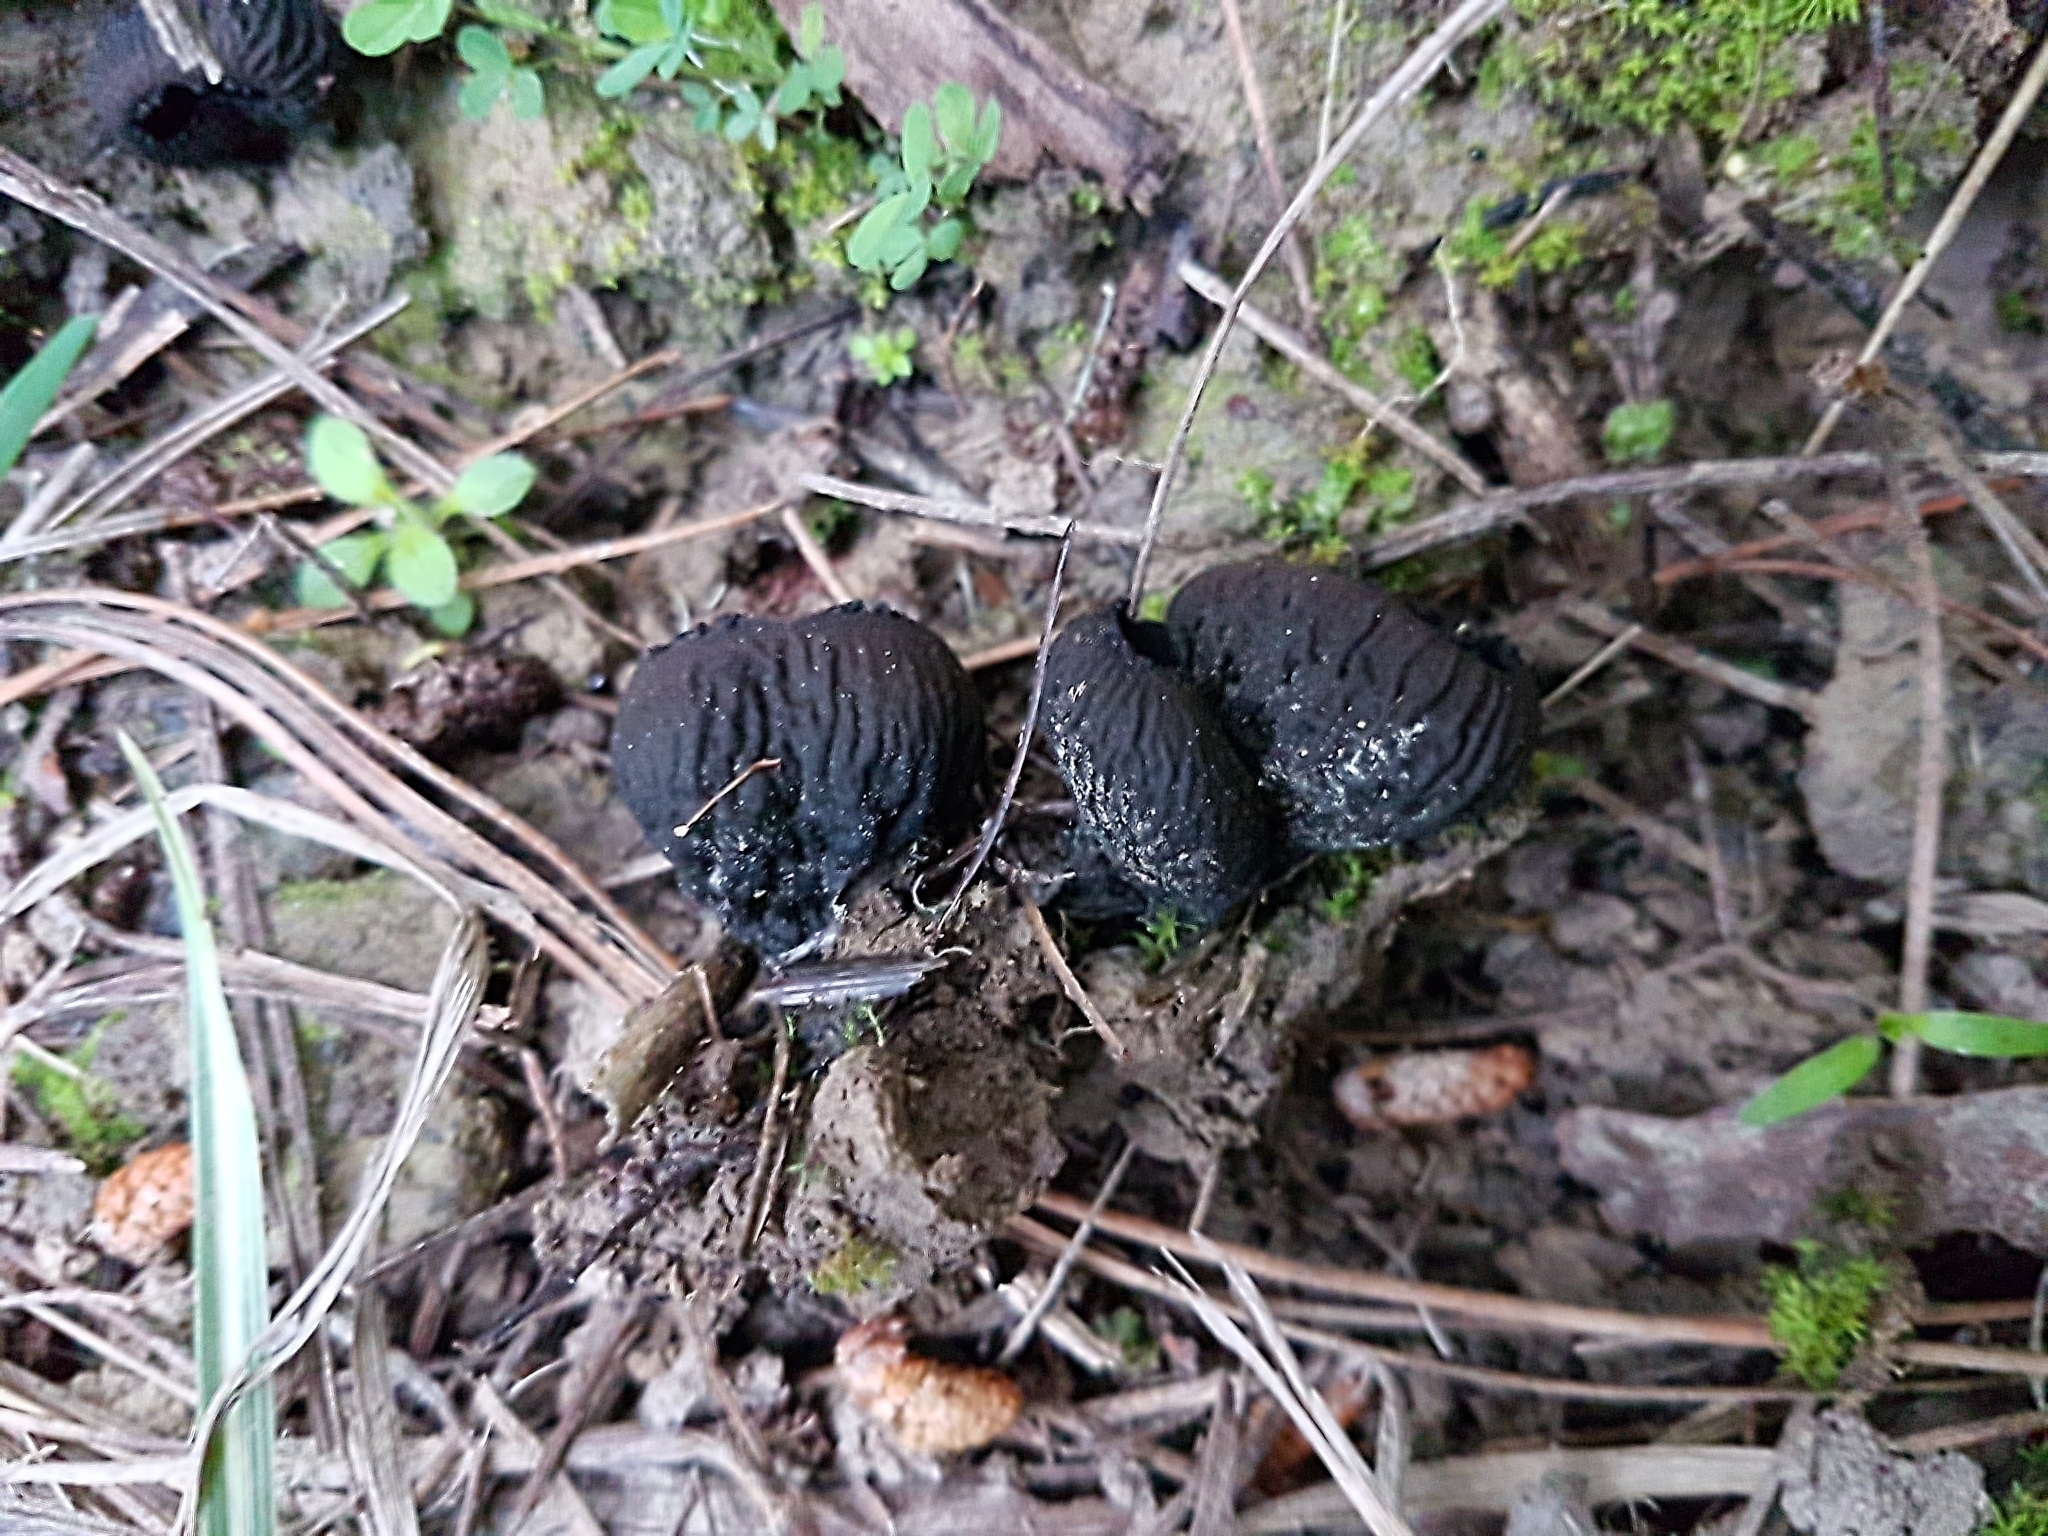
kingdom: Fungi
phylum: Ascomycota
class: Pezizomycetes
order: Pezizales
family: Sarcosomataceae
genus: Plectania
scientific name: Plectania rhytidia
